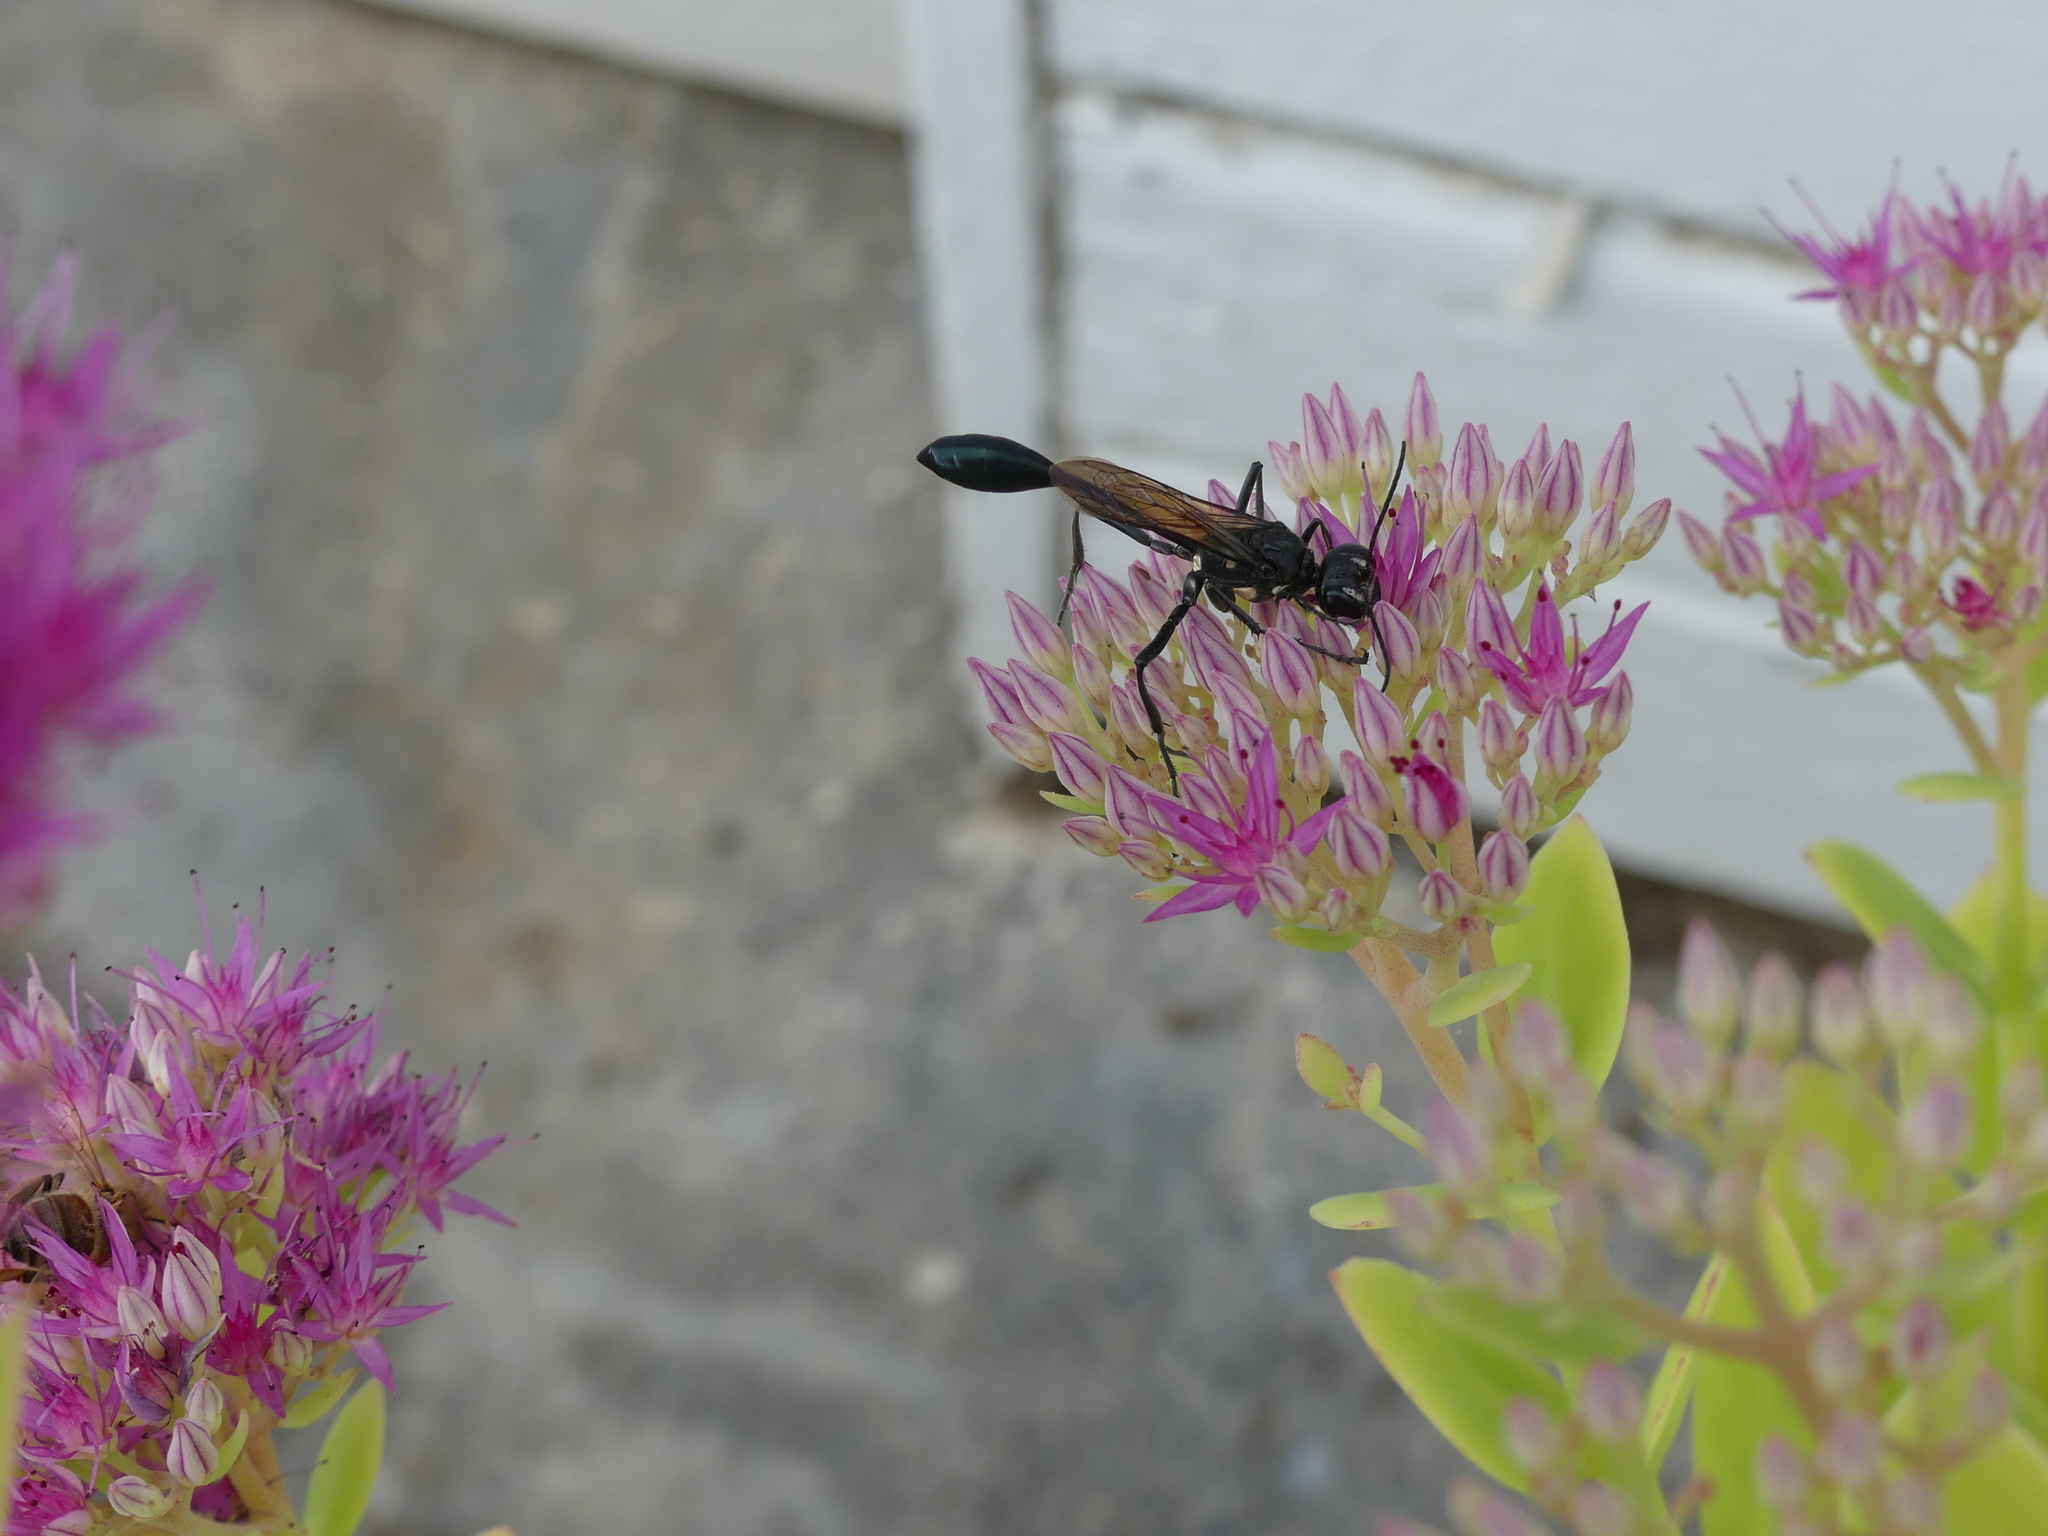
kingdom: Animalia
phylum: Arthropoda
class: Insecta
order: Hymenoptera
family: Sphecidae
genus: Eremnophila
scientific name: Eremnophila aureonotata
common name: Gold-marked thread-waisted wasp
